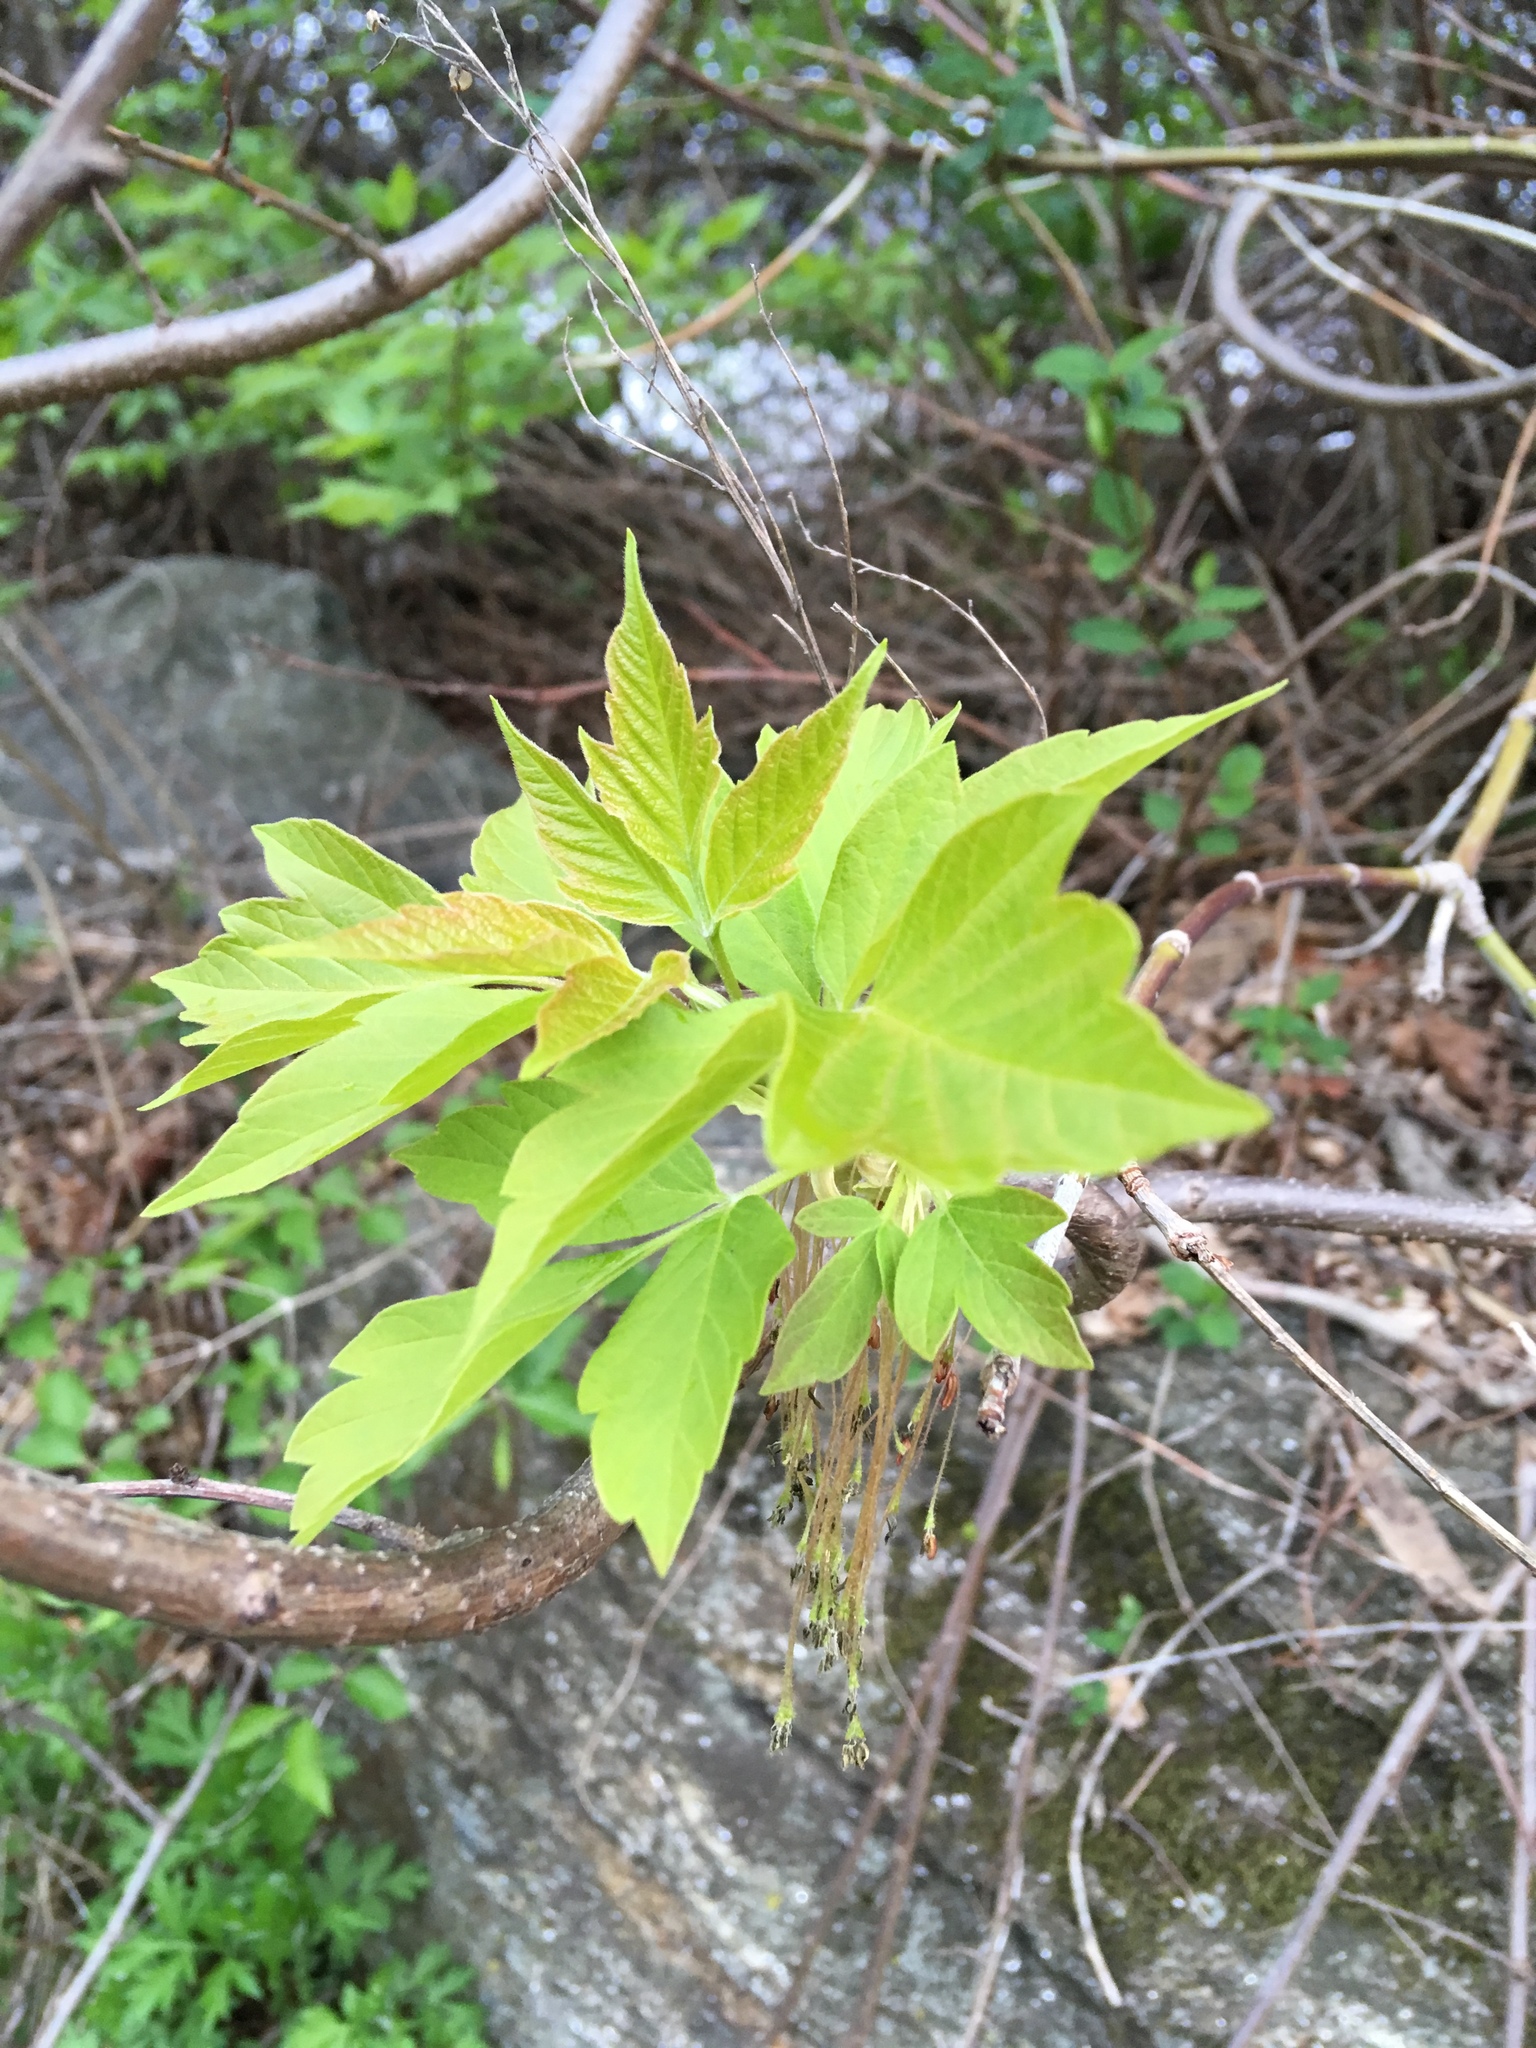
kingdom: Plantae
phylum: Tracheophyta
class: Magnoliopsida
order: Sapindales
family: Sapindaceae
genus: Acer
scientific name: Acer negundo
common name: Ashleaf maple
